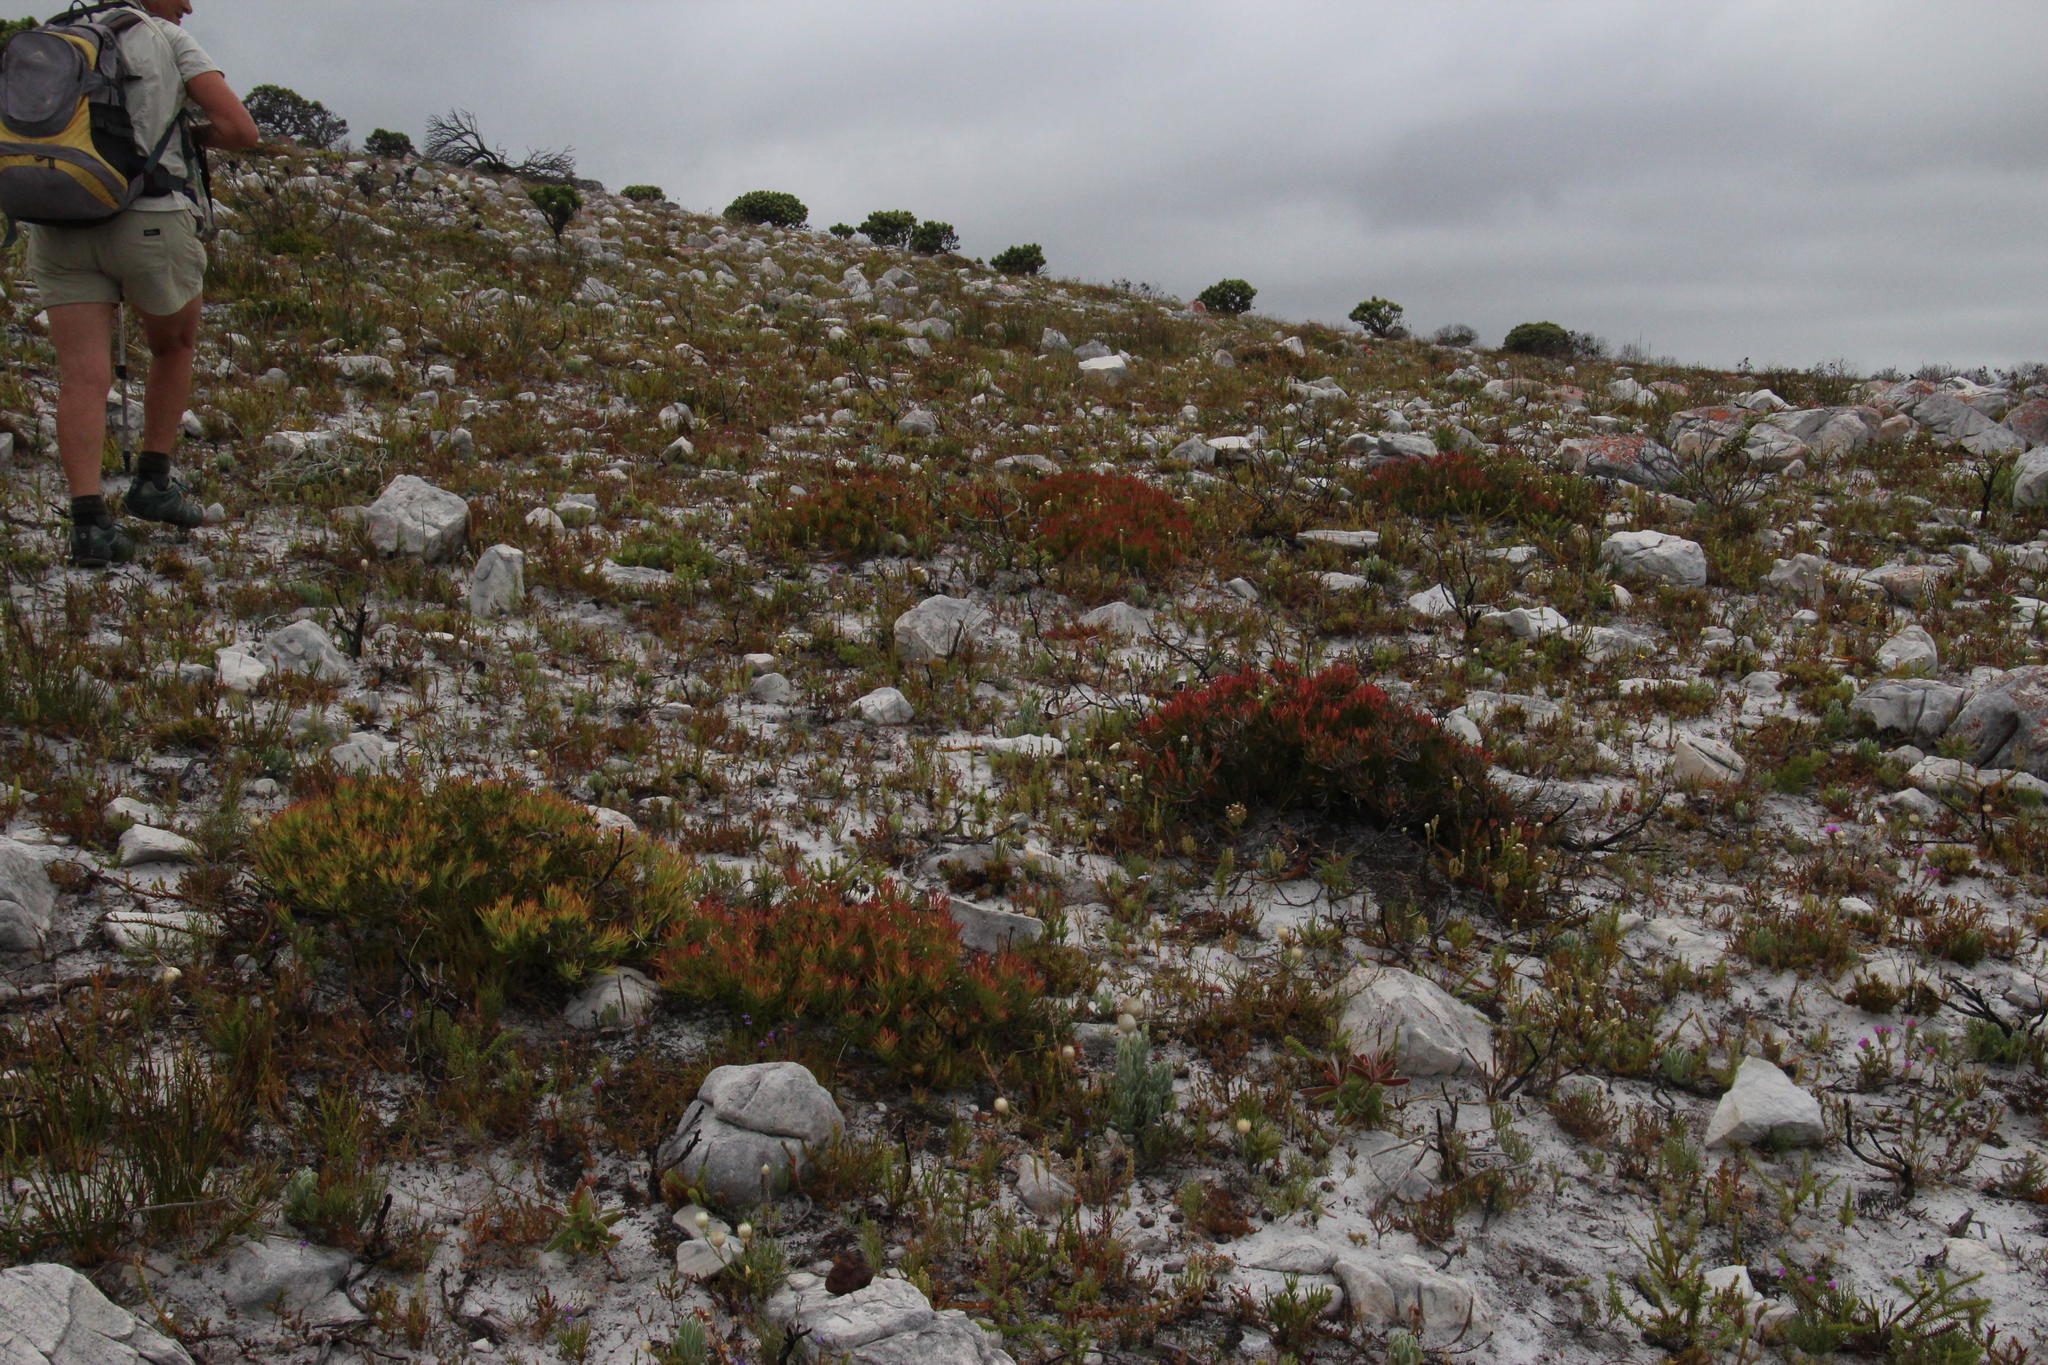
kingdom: Plantae
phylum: Tracheophyta
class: Magnoliopsida
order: Proteales
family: Proteaceae
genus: Leucadendron
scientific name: Leucadendron salignum
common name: Common sunshine conebush
